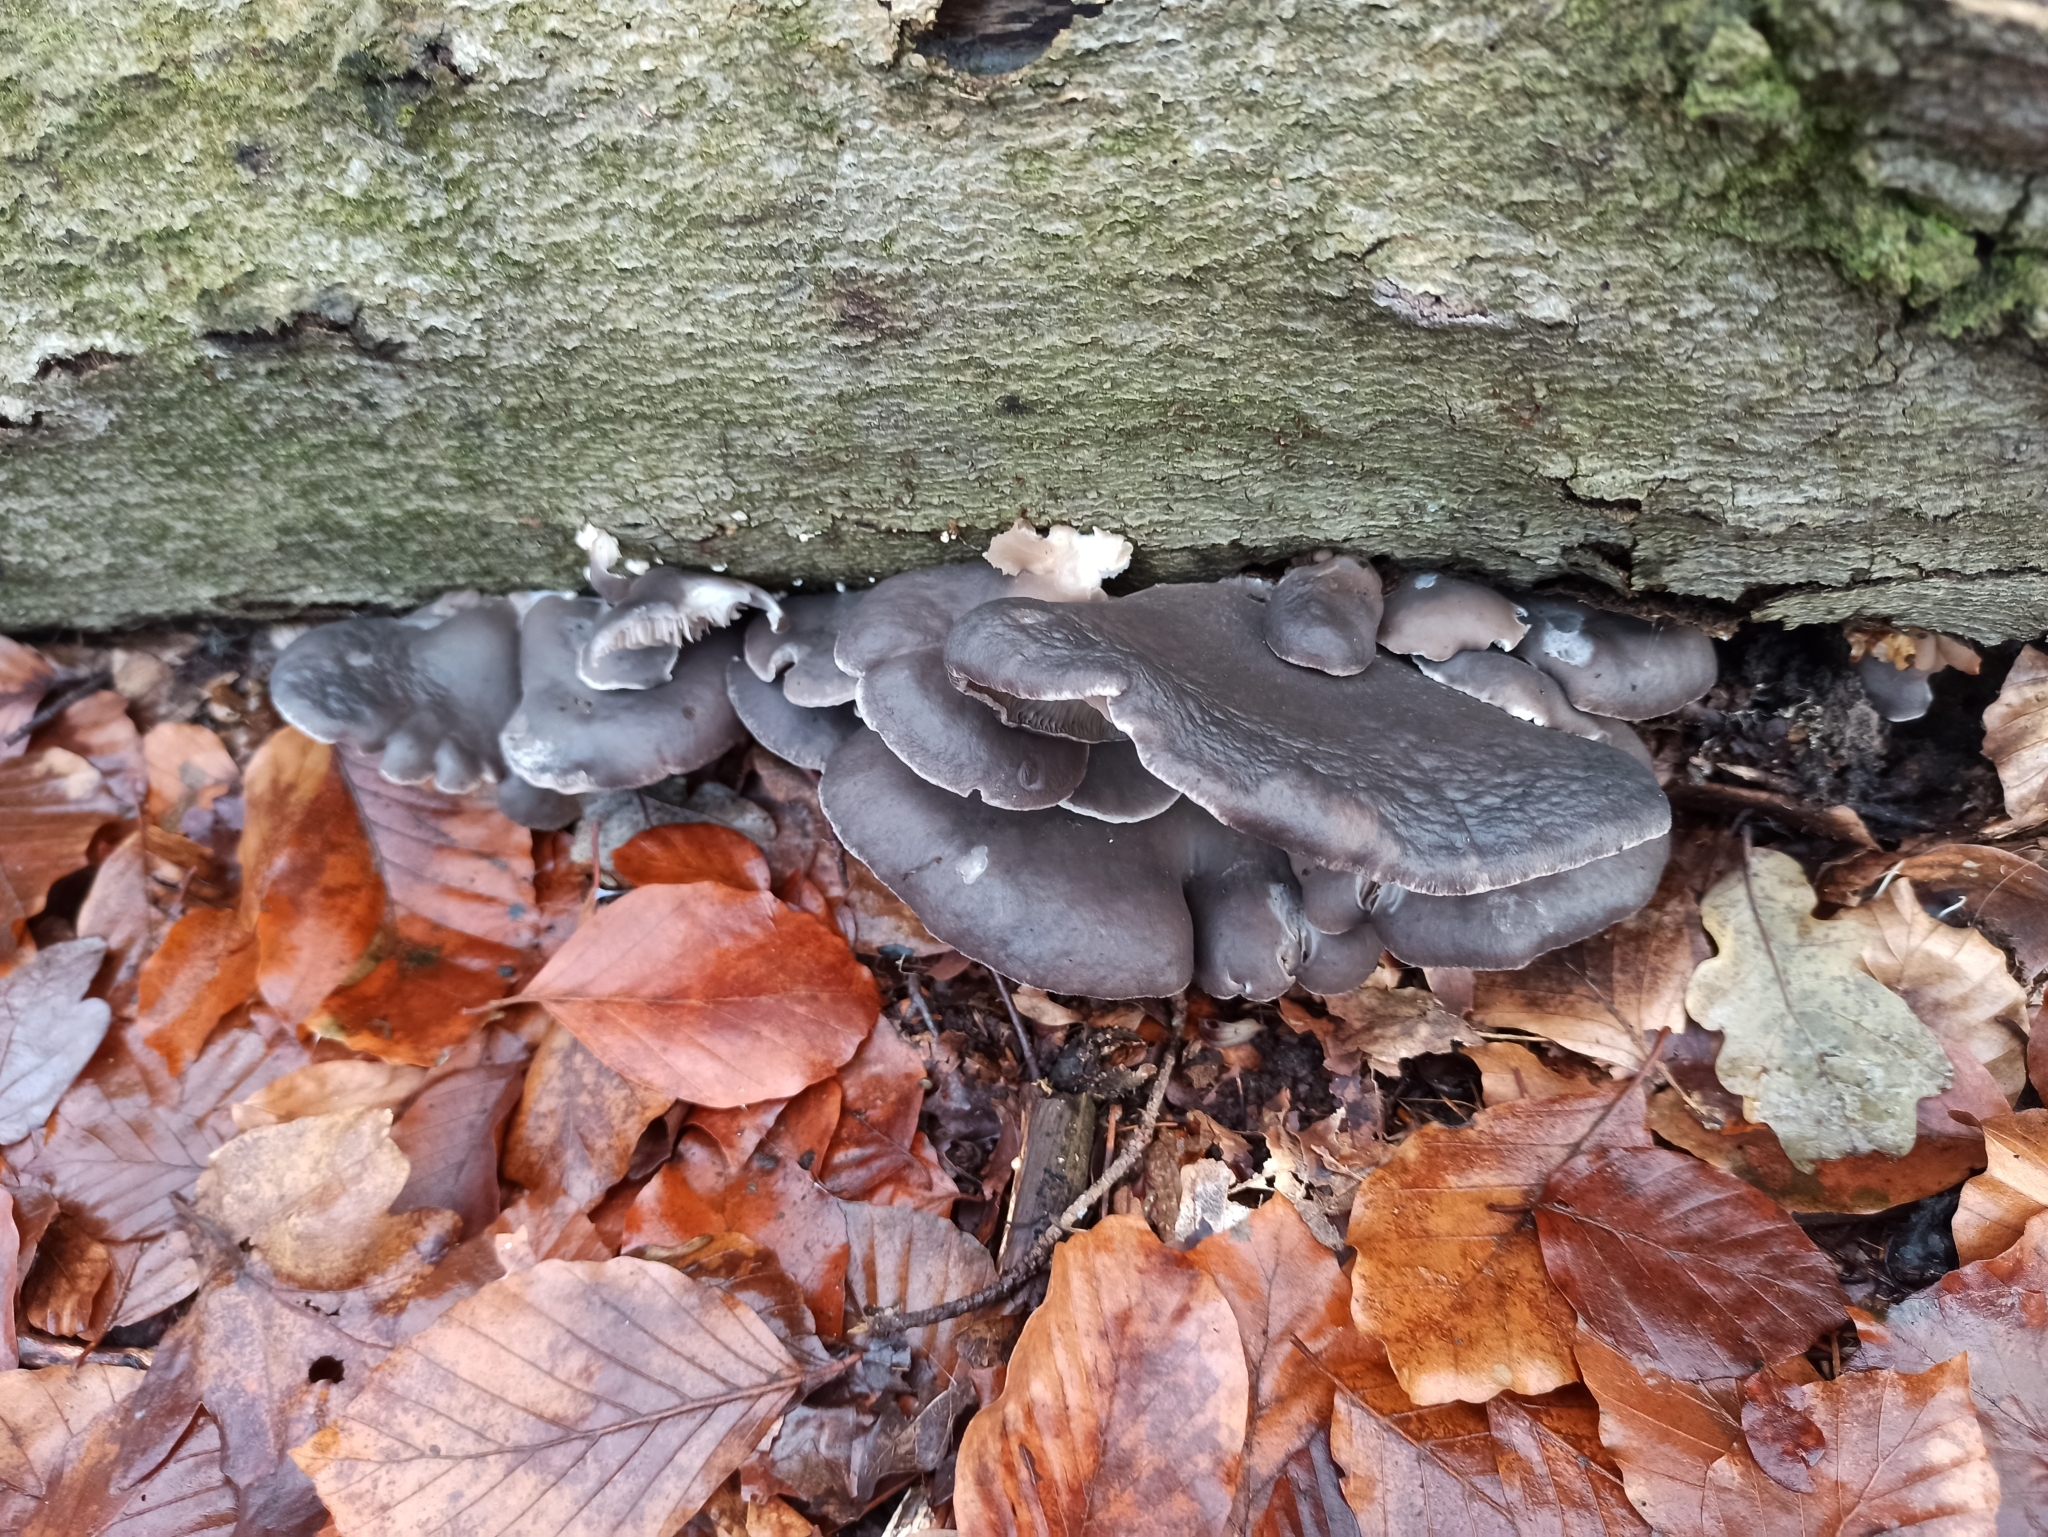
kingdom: Fungi
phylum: Basidiomycota
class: Agaricomycetes
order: Agaricales
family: Pleurotaceae
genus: Pleurotus
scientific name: Pleurotus ostreatus
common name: Oyster mushroom
